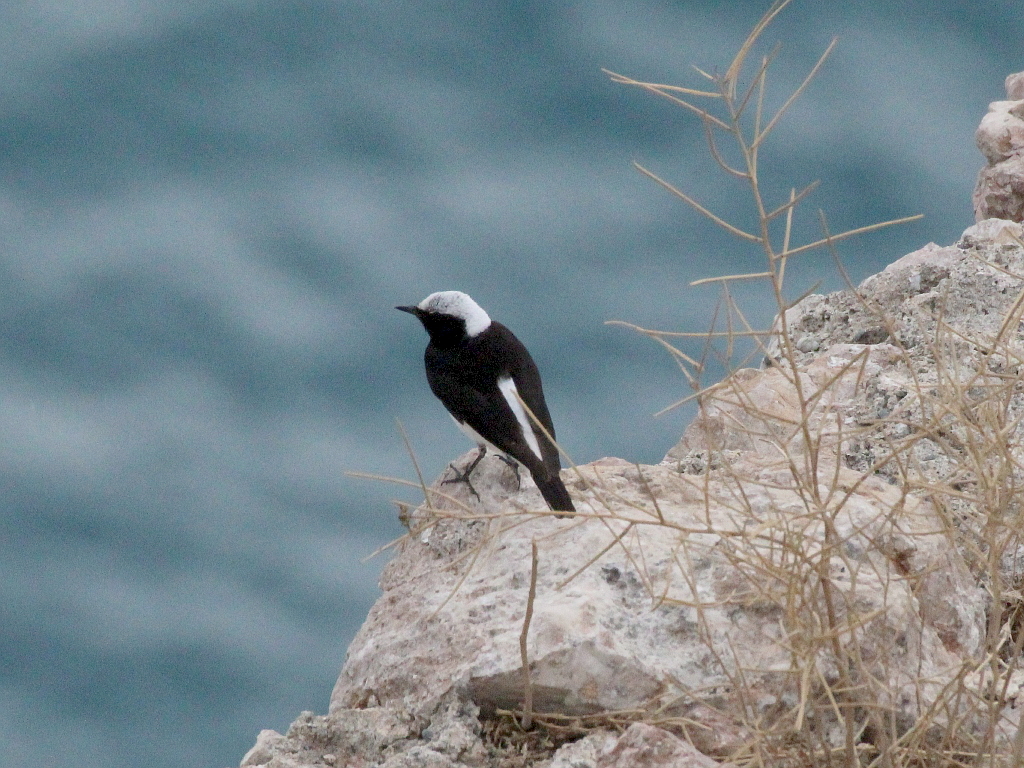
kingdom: Animalia
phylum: Chordata
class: Aves
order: Passeriformes
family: Muscicapidae
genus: Oenanthe
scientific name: Oenanthe pleschanka
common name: Pied wheatear
